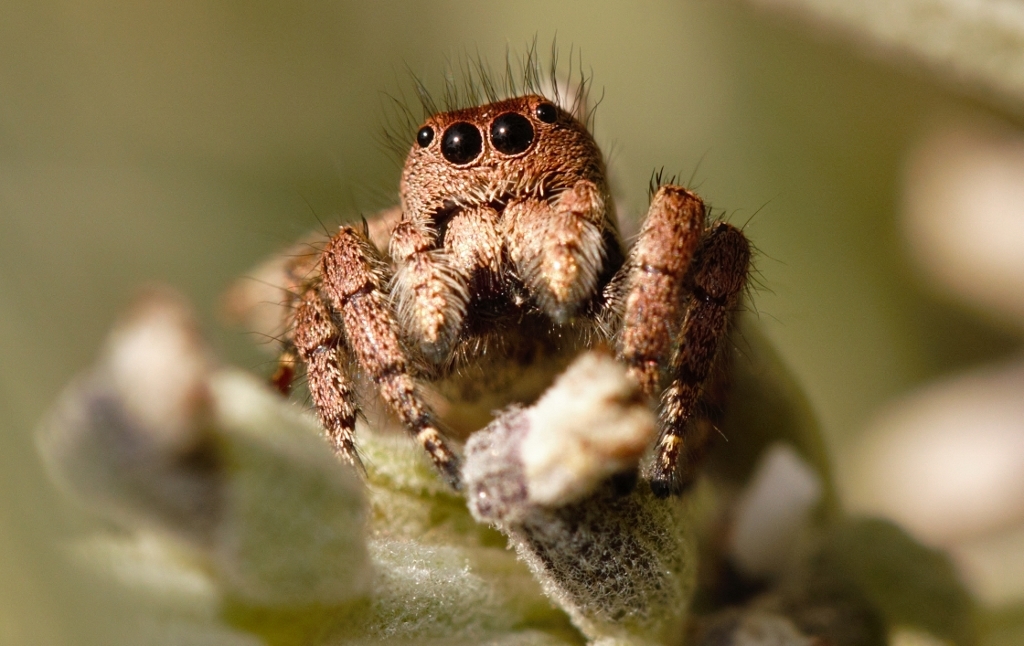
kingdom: Animalia
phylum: Arthropoda
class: Arachnida
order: Araneae
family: Salticidae
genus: Baryphas
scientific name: Baryphas ahenus
